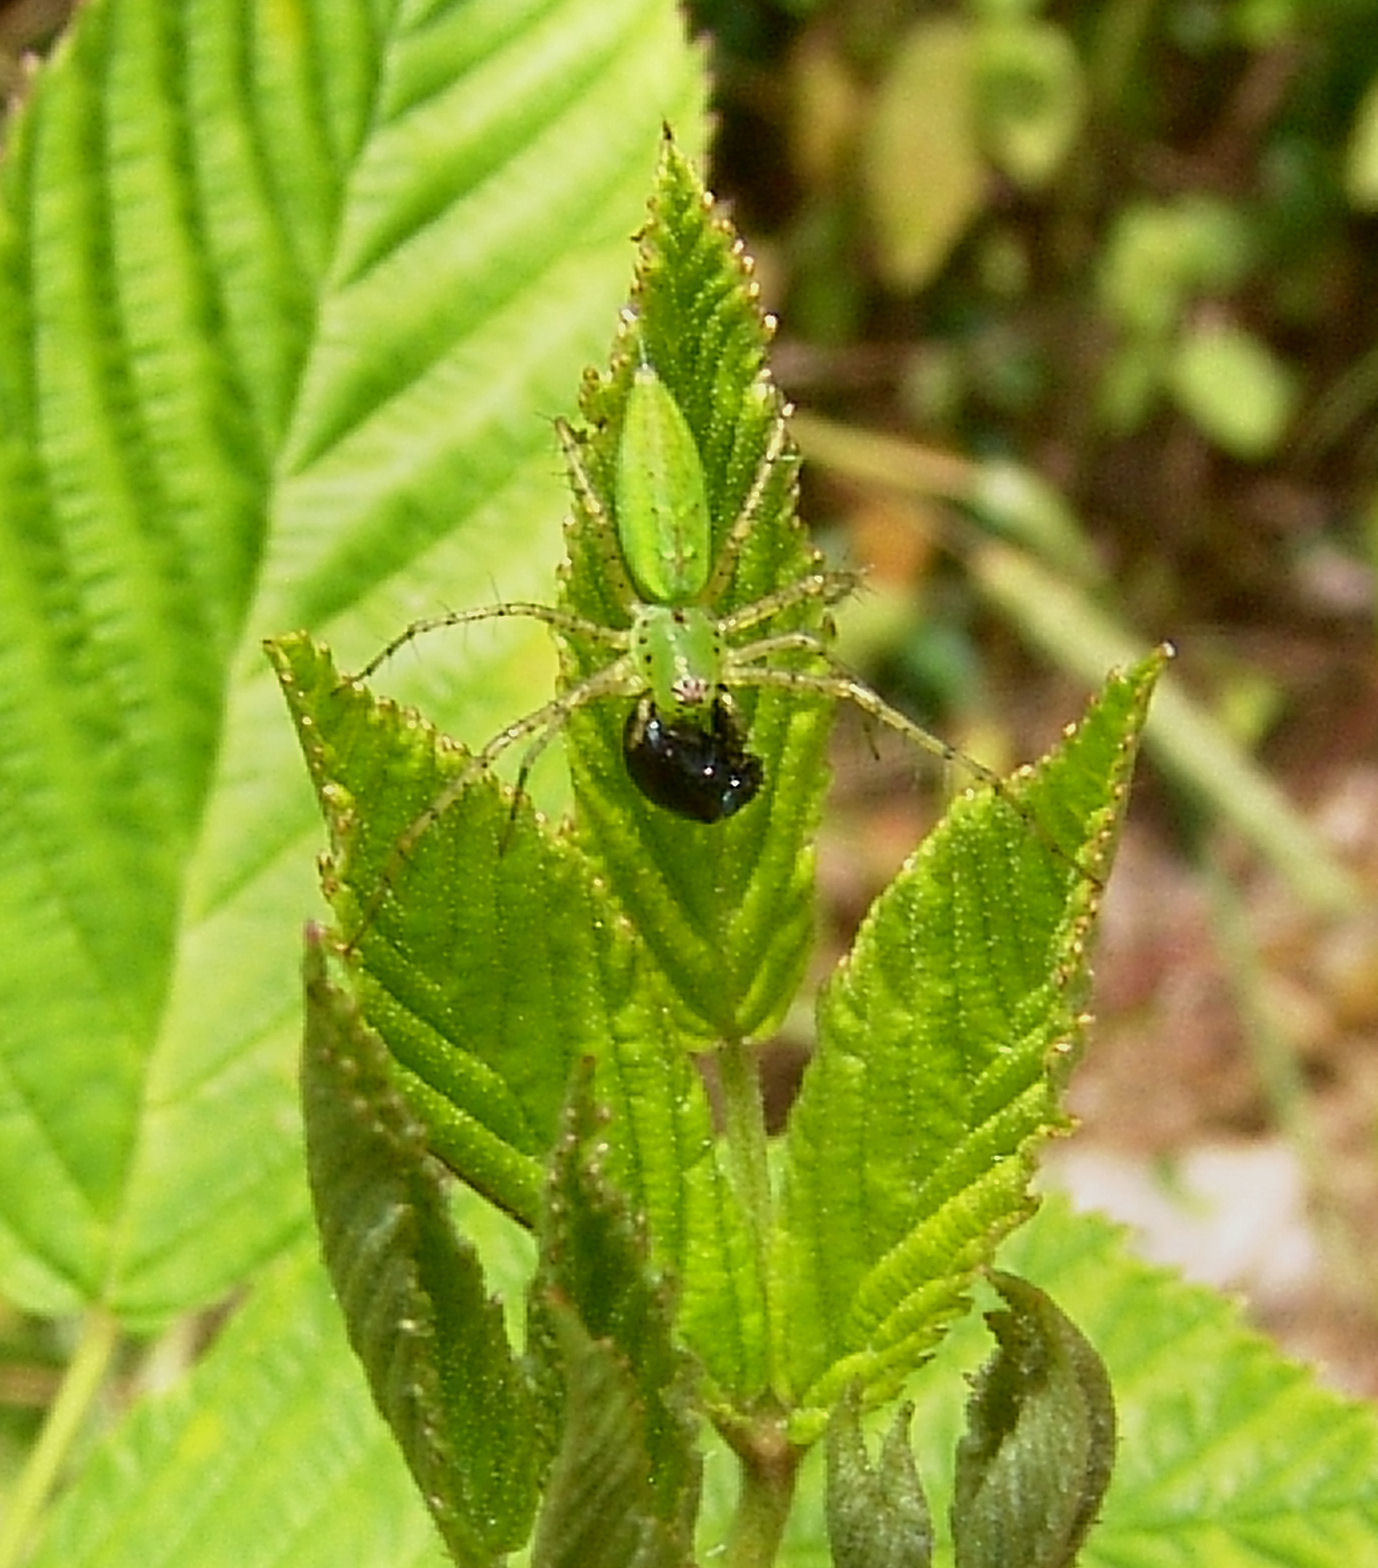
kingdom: Animalia
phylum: Arthropoda
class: Arachnida
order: Araneae
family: Oxyopidae
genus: Peucetia
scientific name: Peucetia viridans
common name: Lynx spiders
